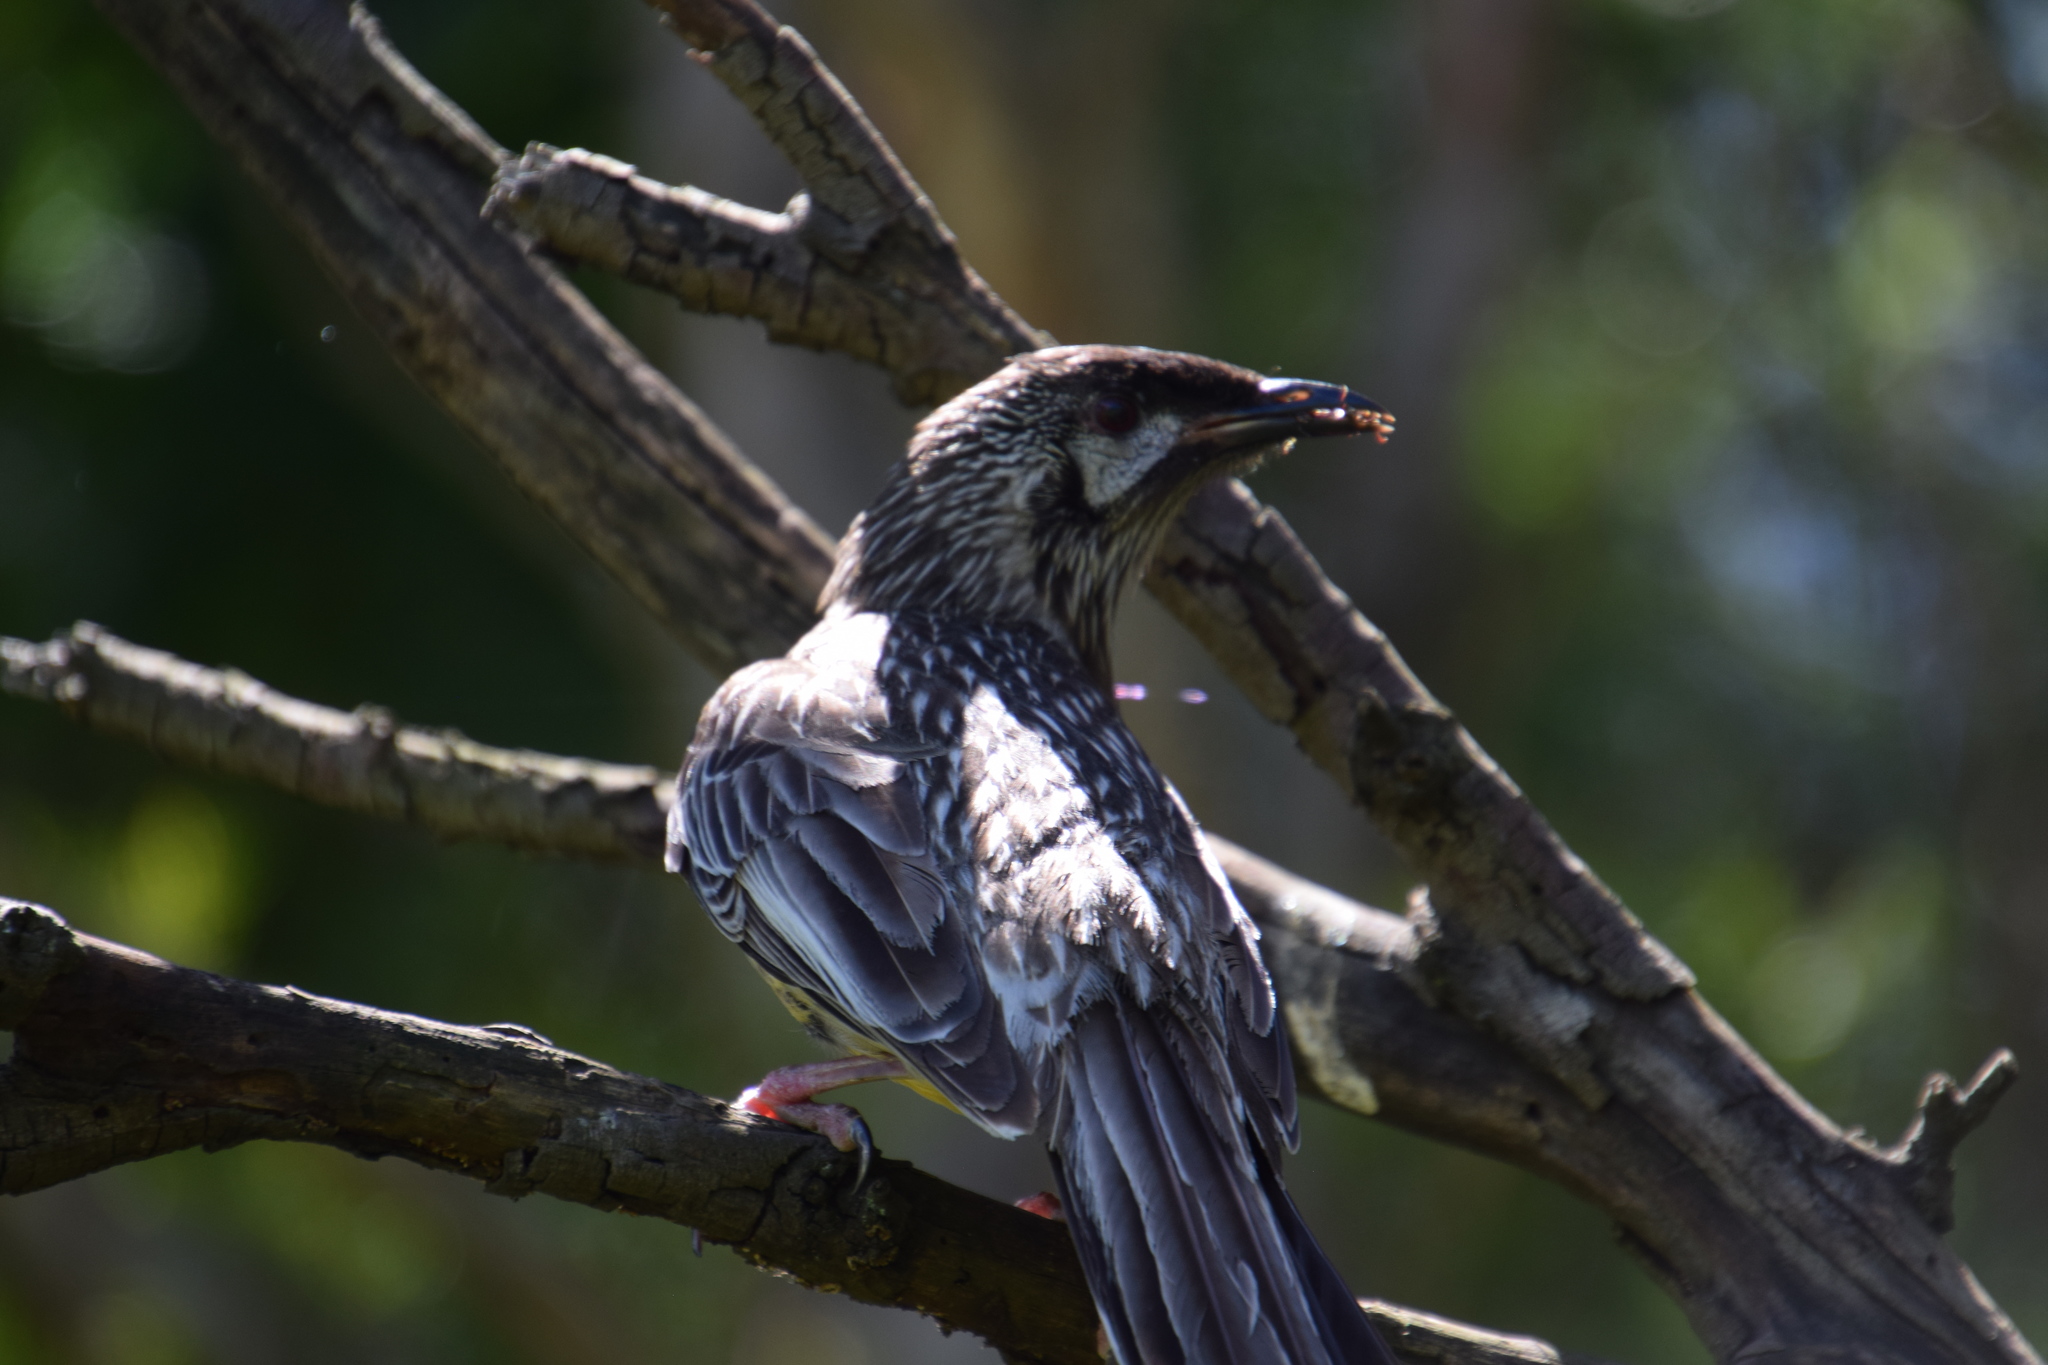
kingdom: Animalia
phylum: Chordata
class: Aves
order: Passeriformes
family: Meliphagidae
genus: Anthochaera
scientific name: Anthochaera carunculata
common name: Red wattlebird
